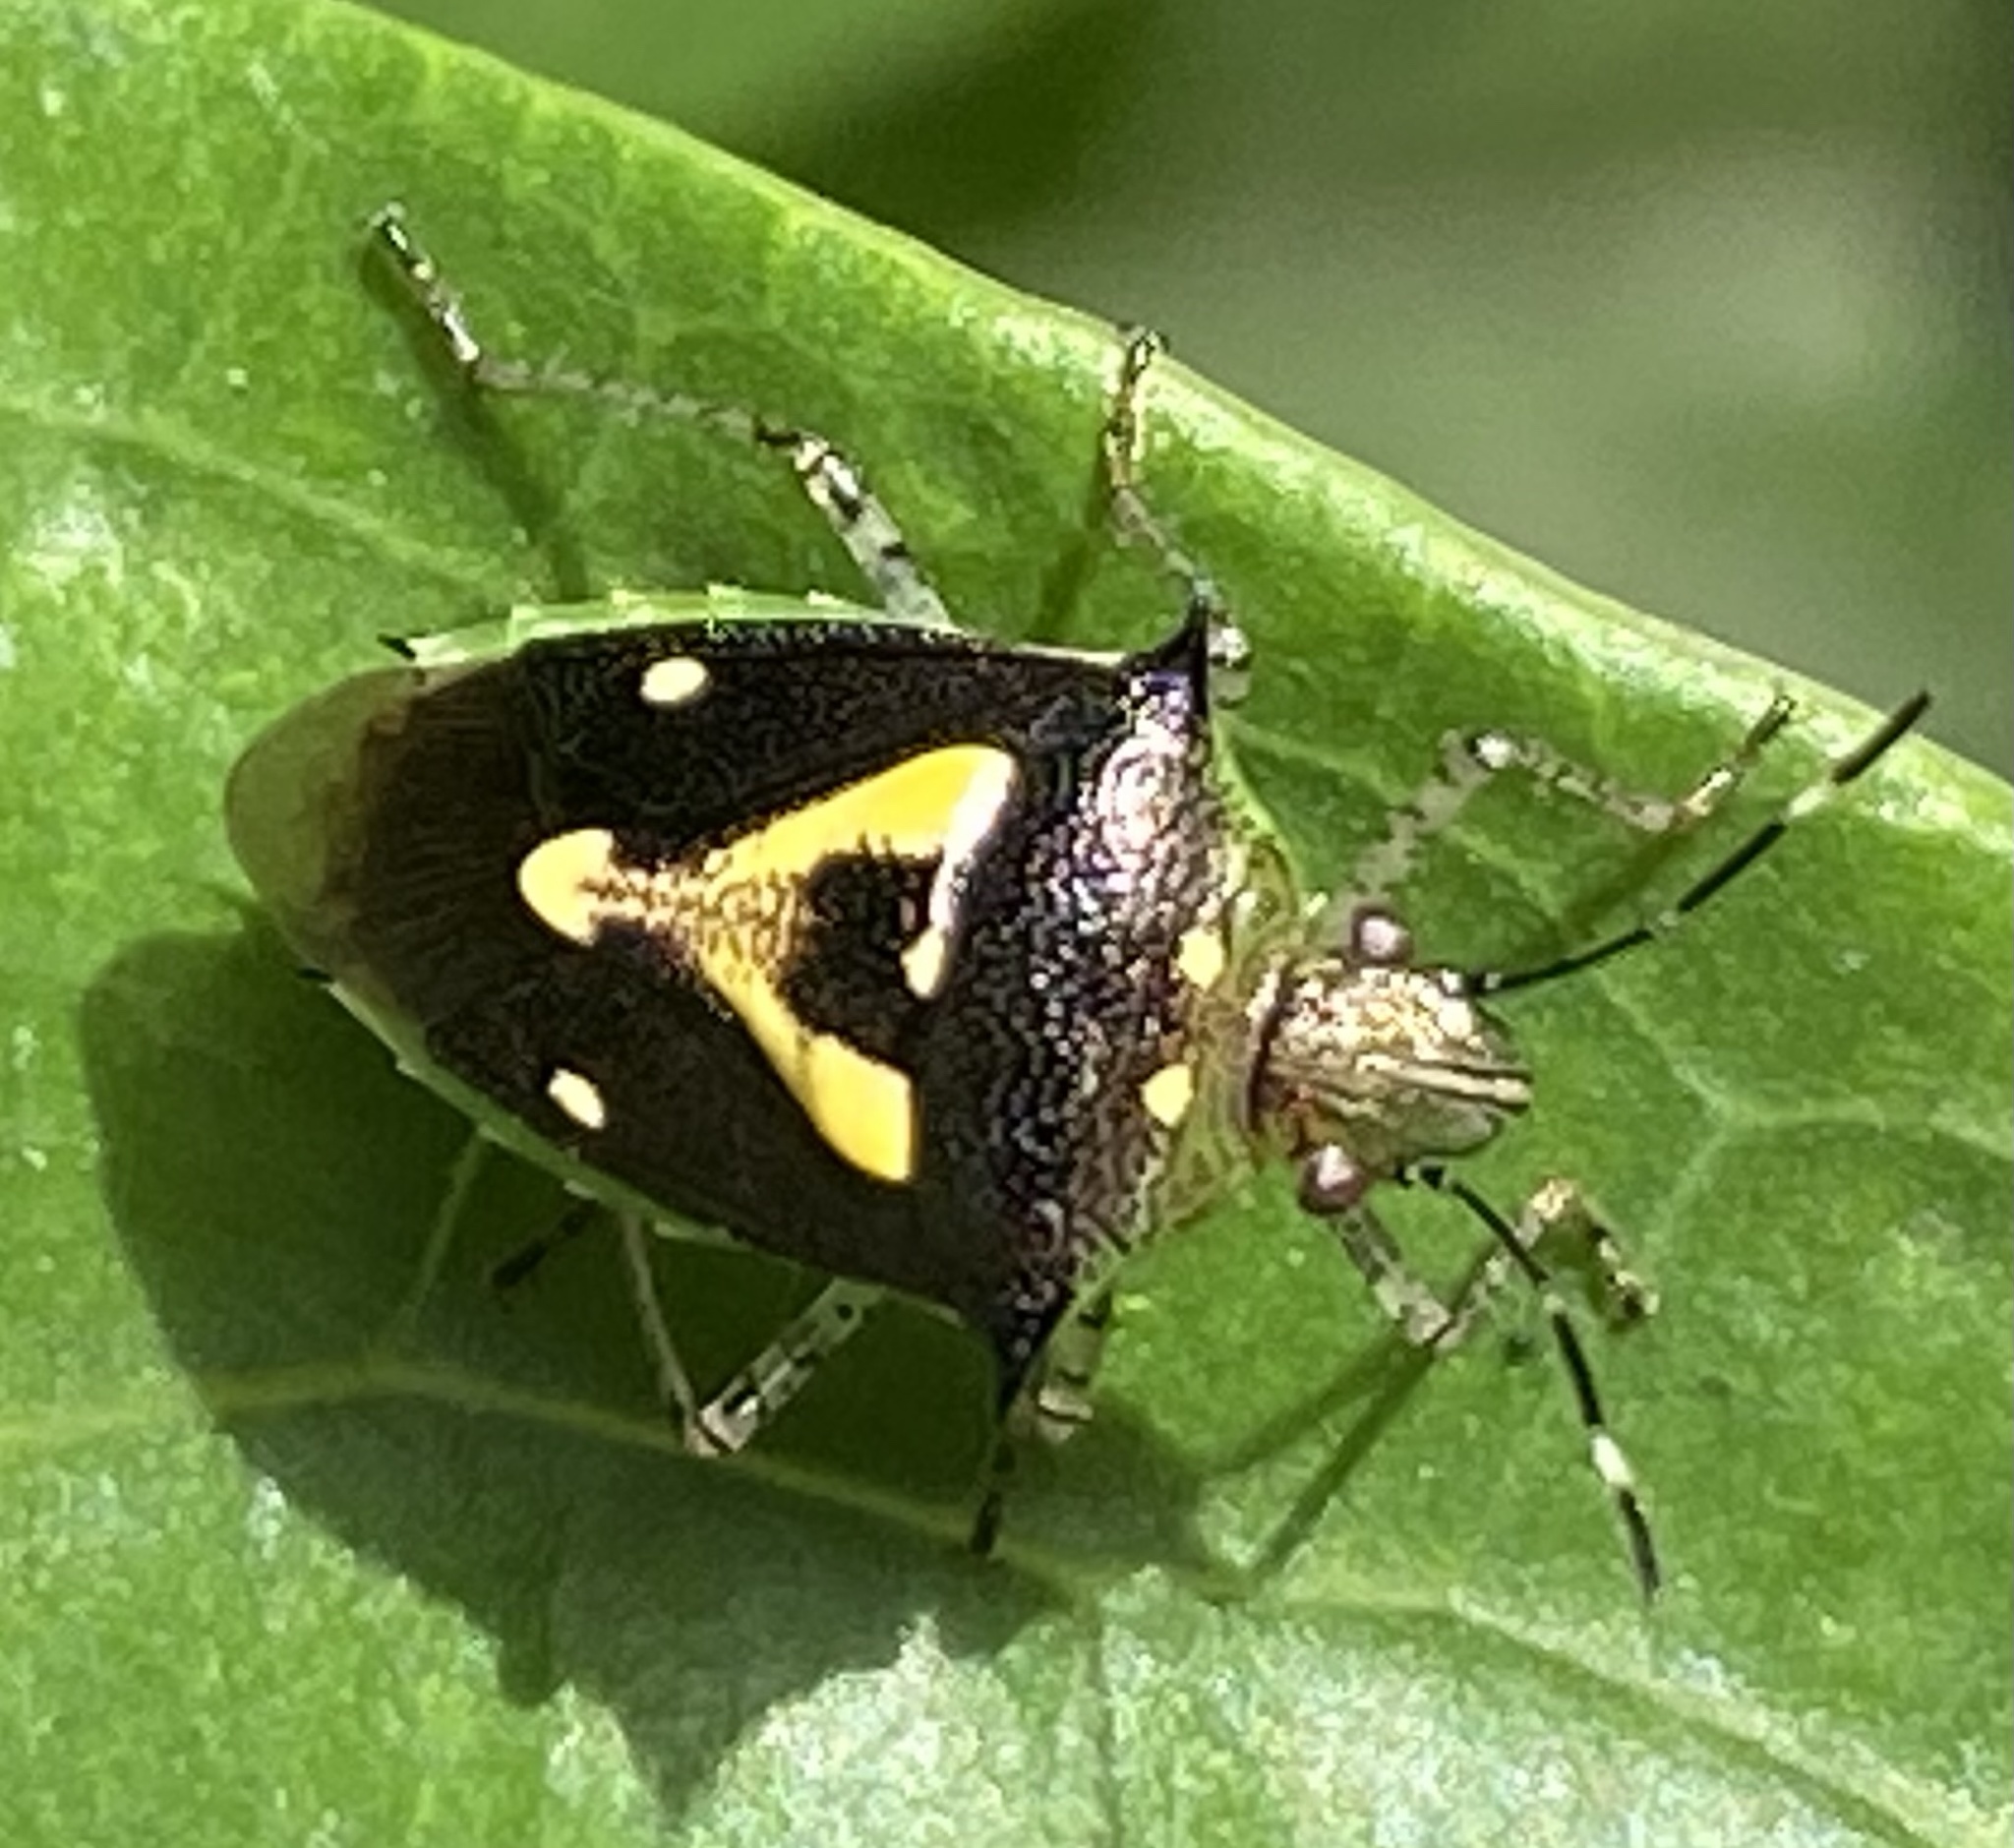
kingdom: Animalia
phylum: Arthropoda
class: Insecta
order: Hemiptera
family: Pentatomidae
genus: Mormidea
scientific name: Mormidea ypsilon
